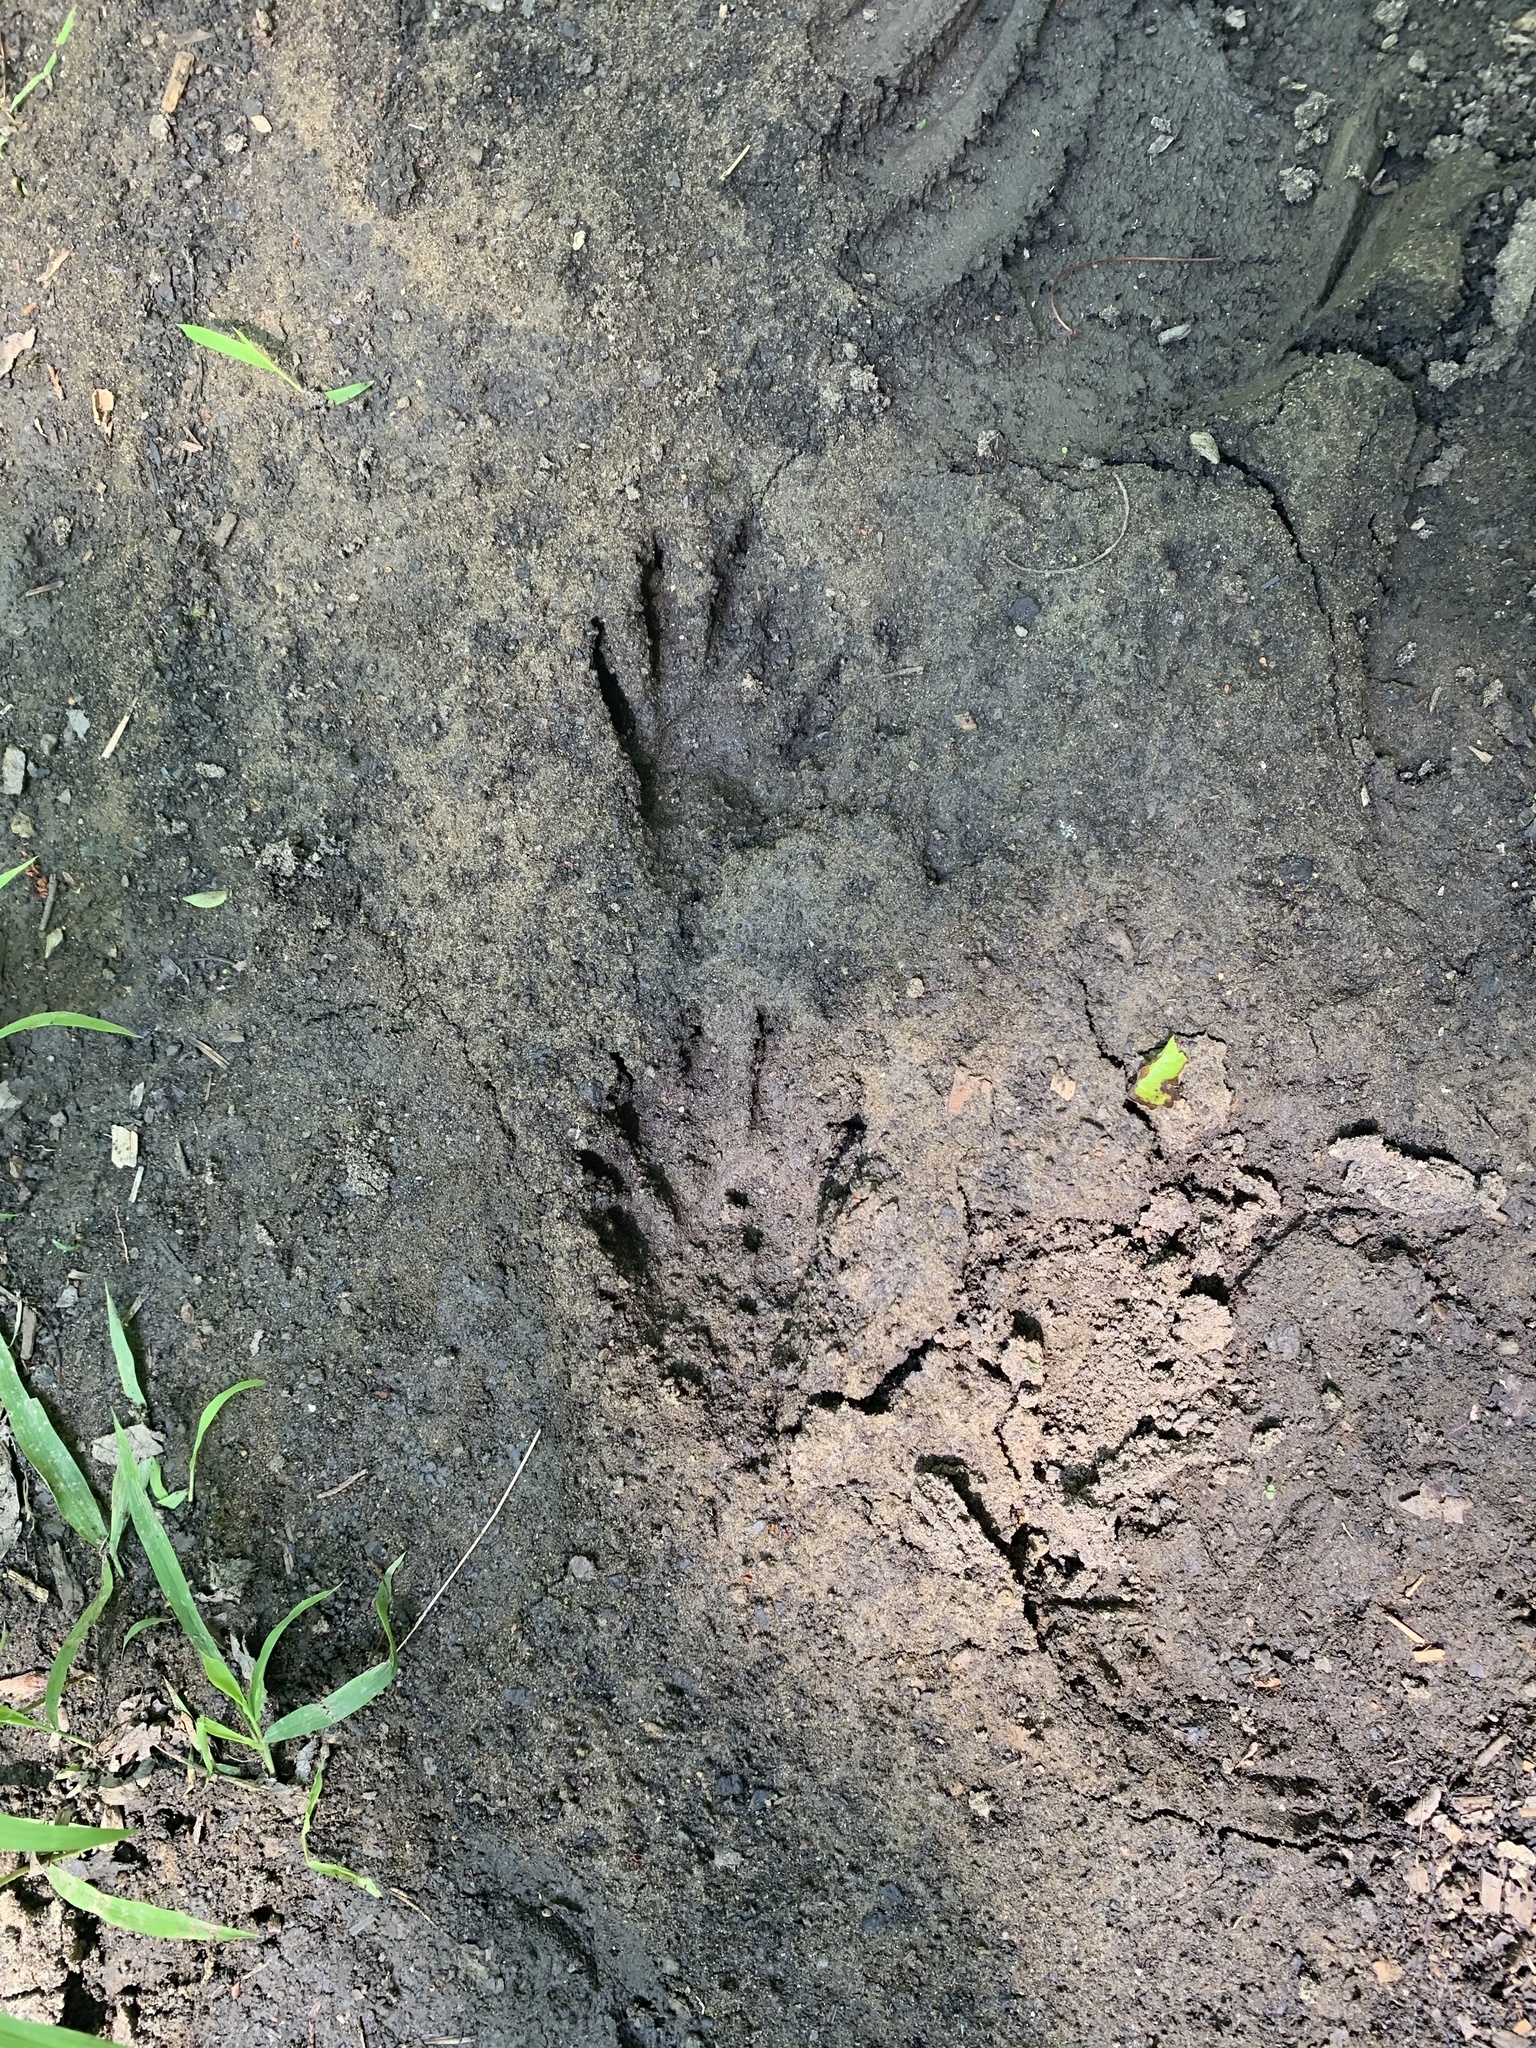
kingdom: Animalia
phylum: Chordata
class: Mammalia
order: Carnivora
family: Procyonidae
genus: Procyon
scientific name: Procyon lotor
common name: Raccoon
